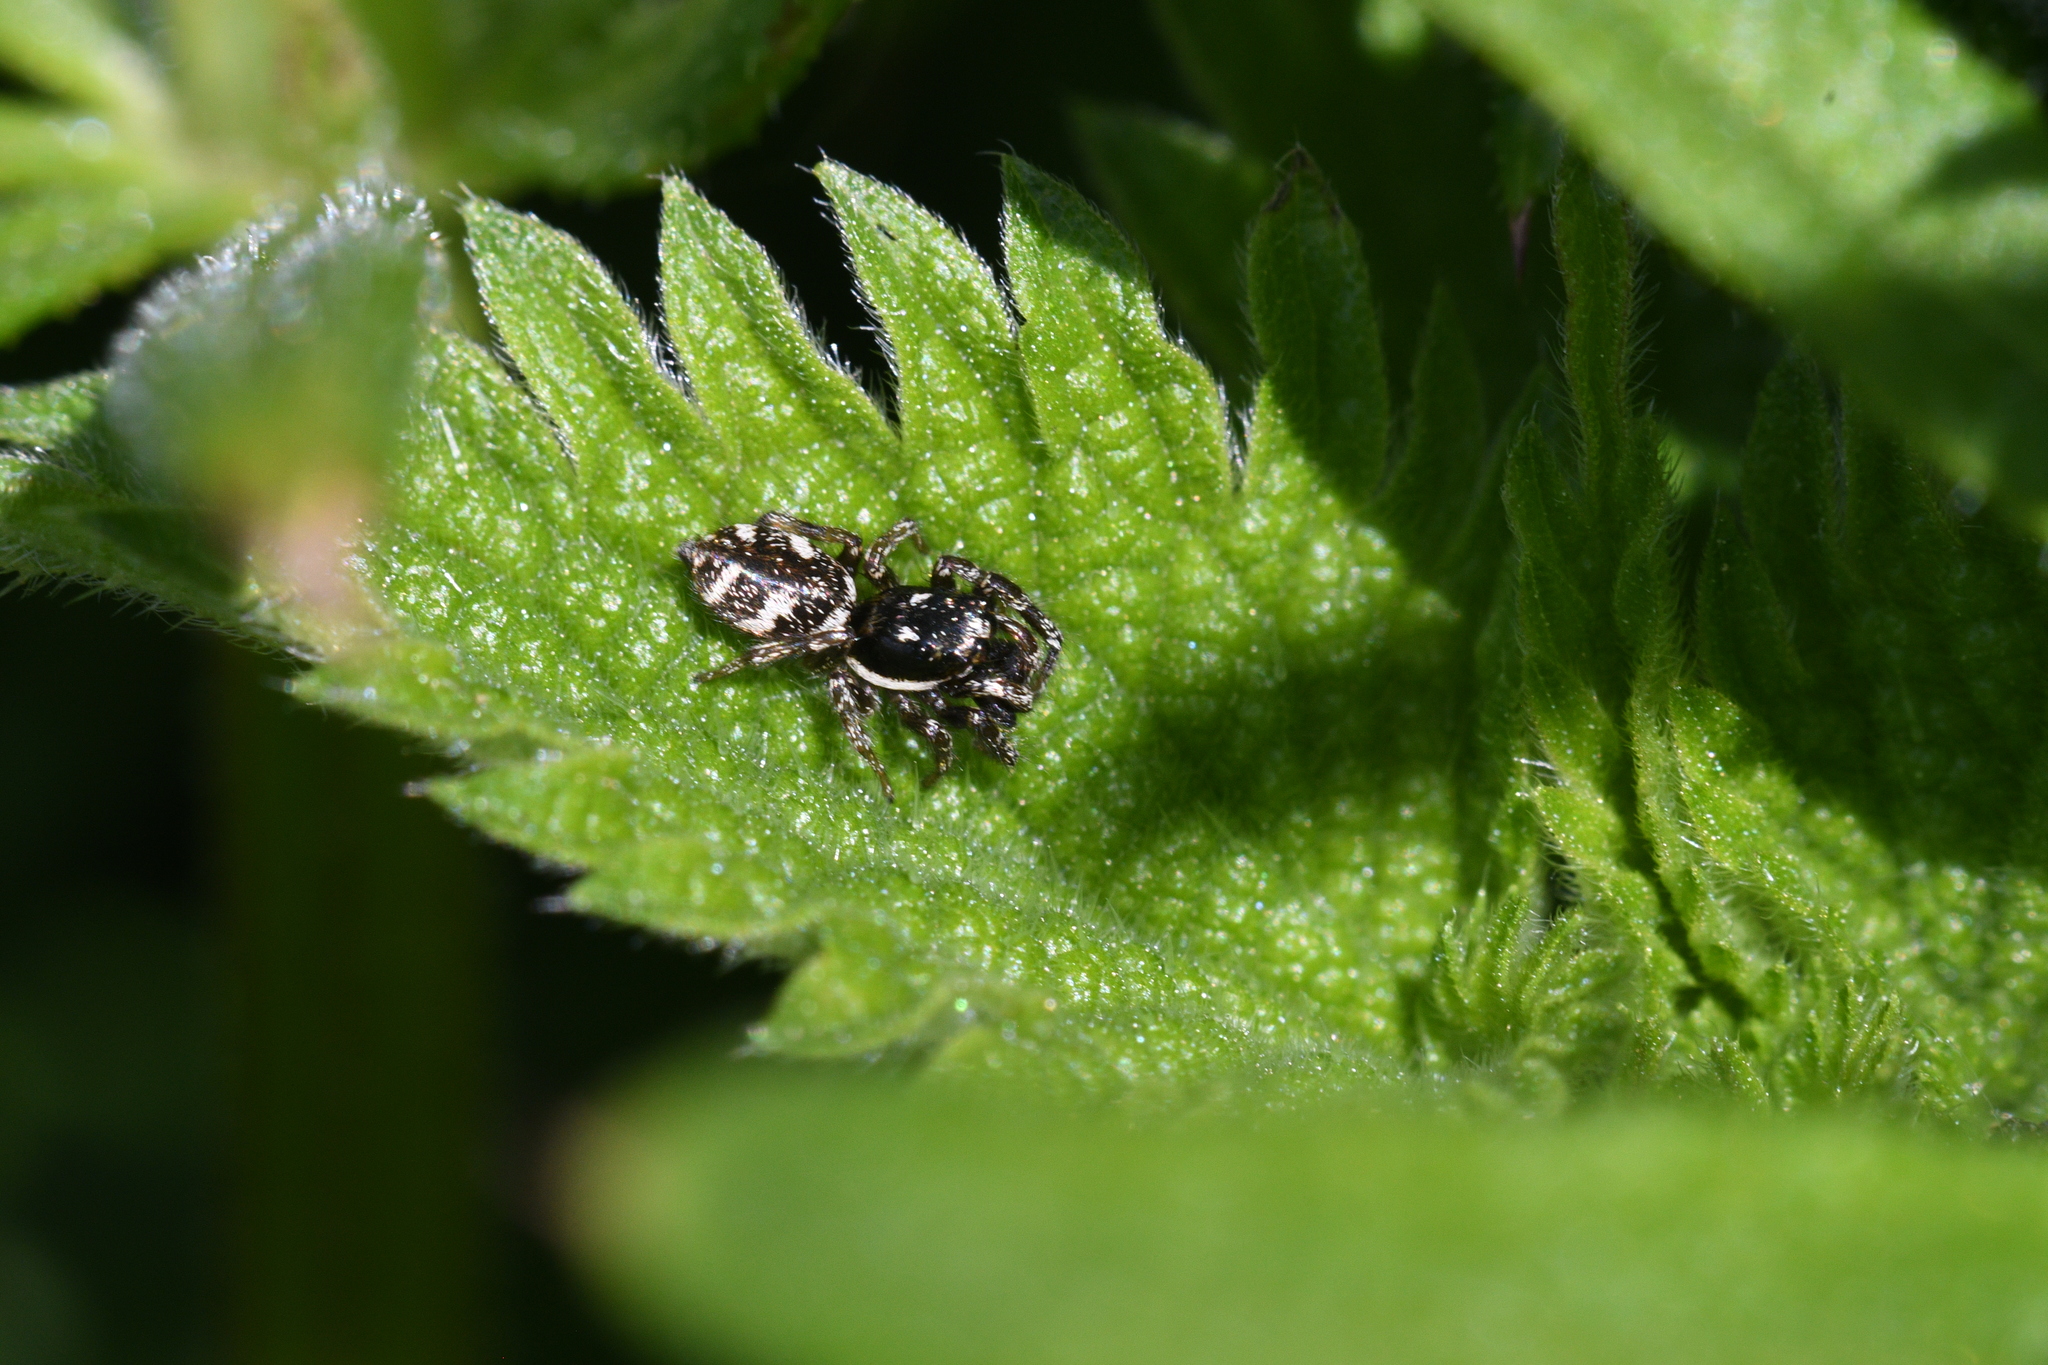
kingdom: Animalia
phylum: Arthropoda
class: Arachnida
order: Araneae
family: Salticidae
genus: Salticus
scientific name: Salticus scenicus
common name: Zebra jumper
